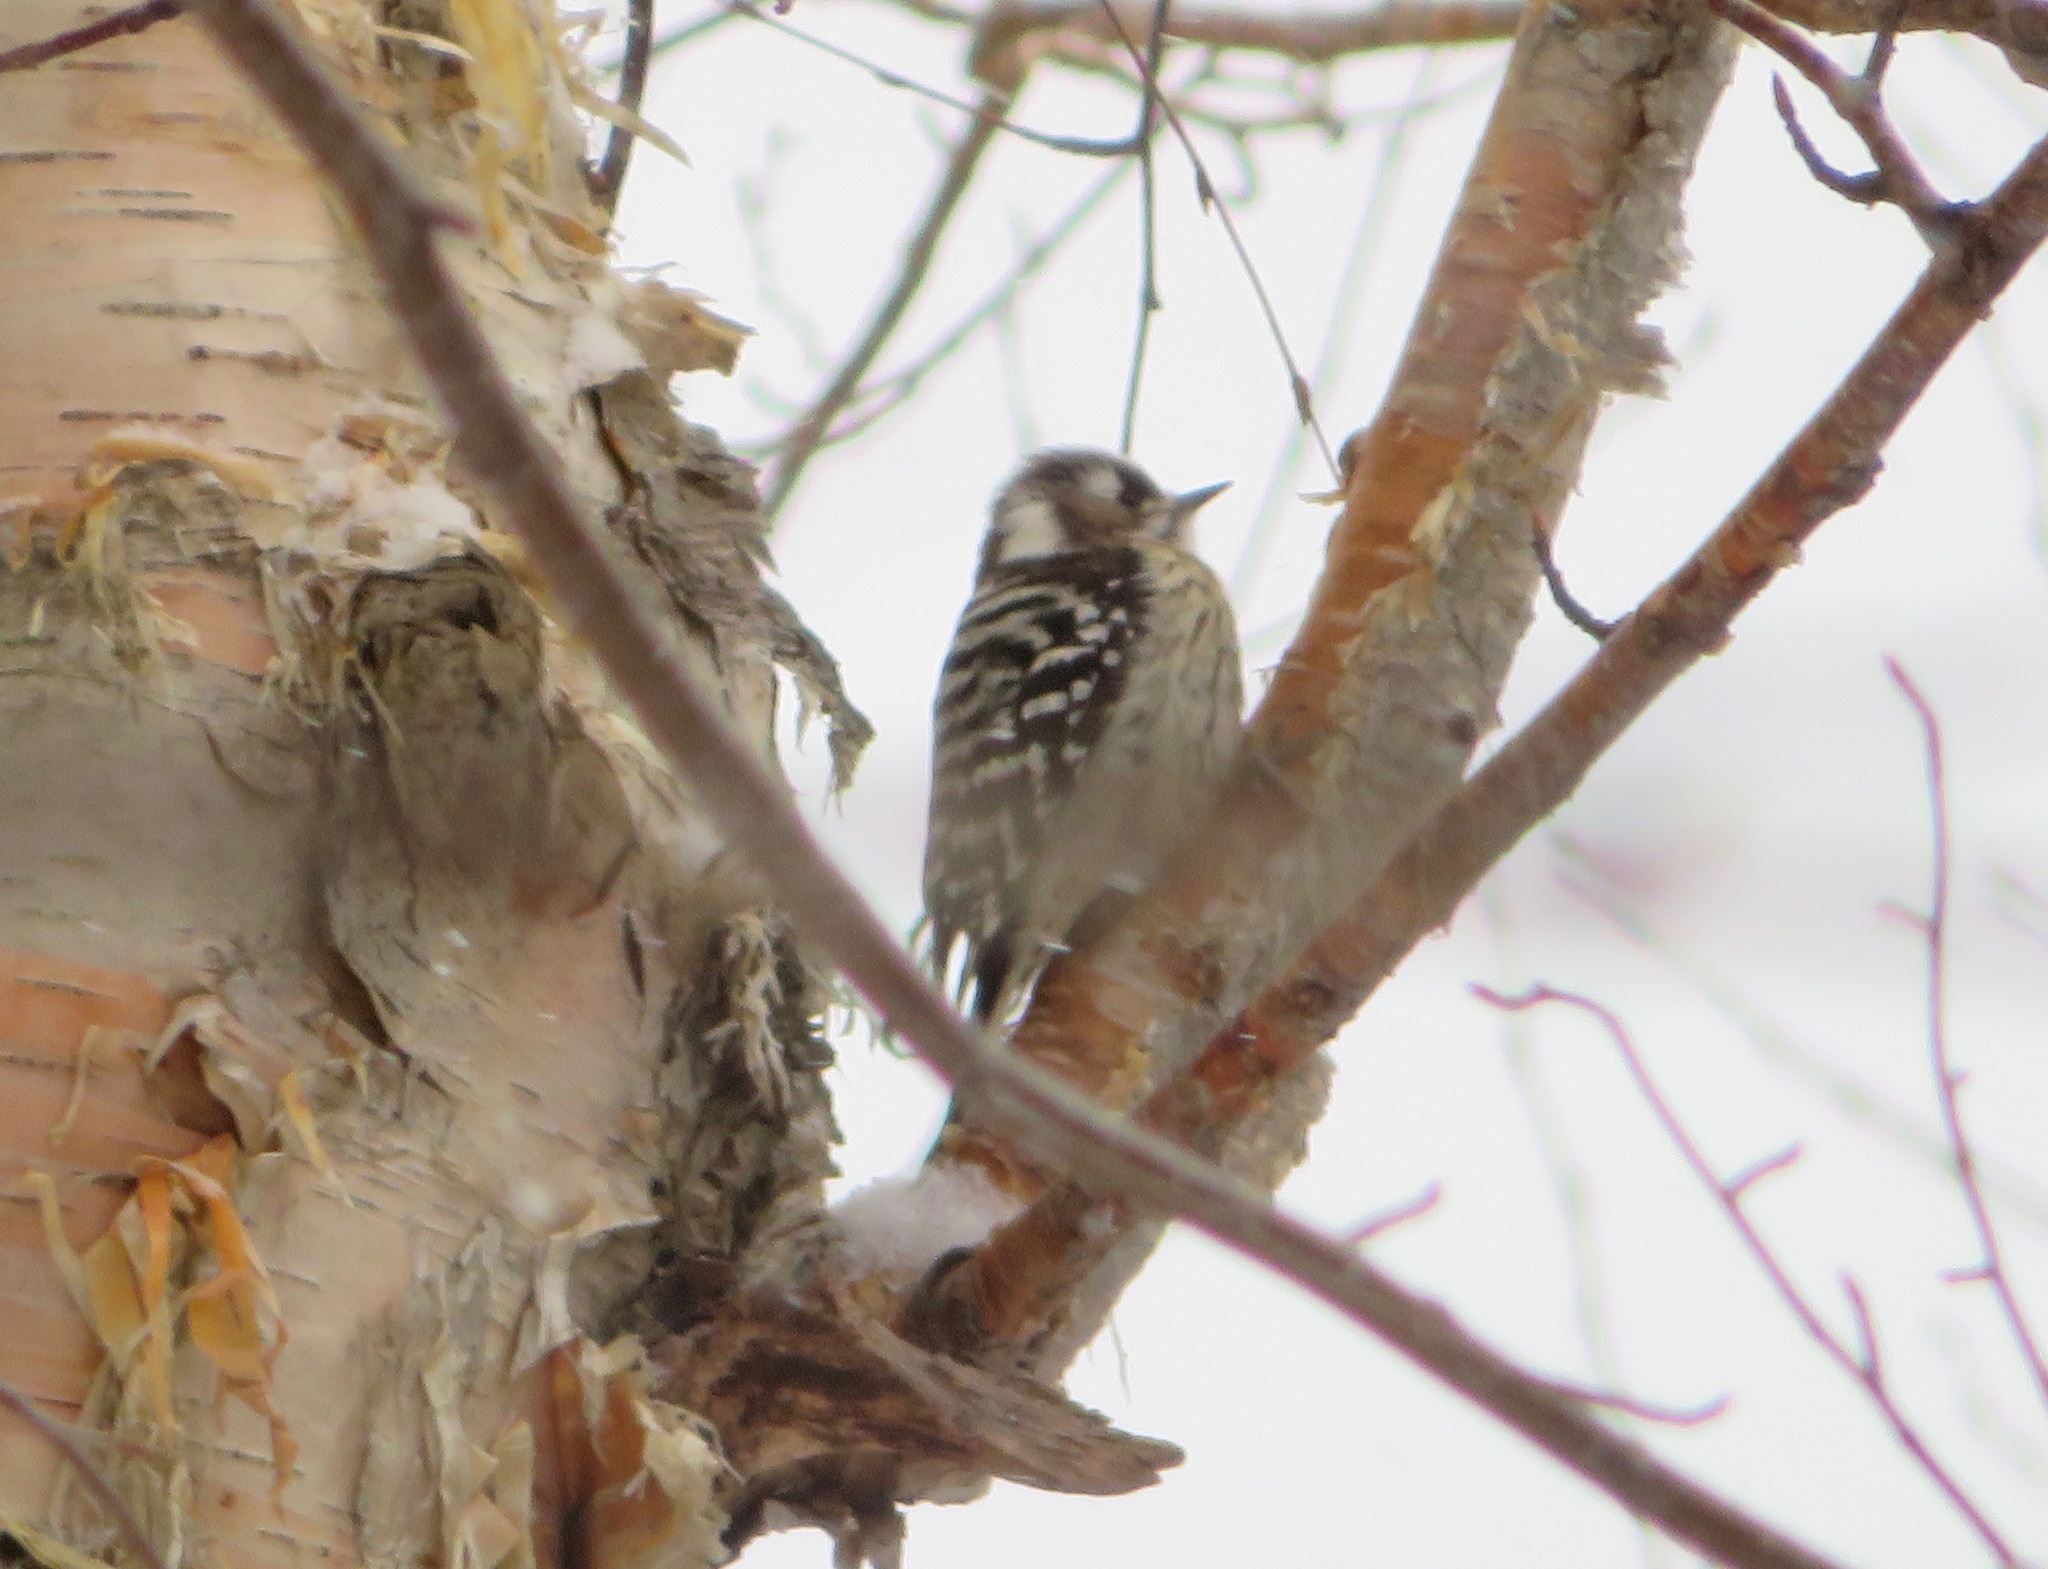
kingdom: Animalia
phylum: Chordata
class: Aves
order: Piciformes
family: Picidae
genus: Yungipicus
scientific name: Yungipicus kizuki
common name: Japanese pygmy woodpecker
